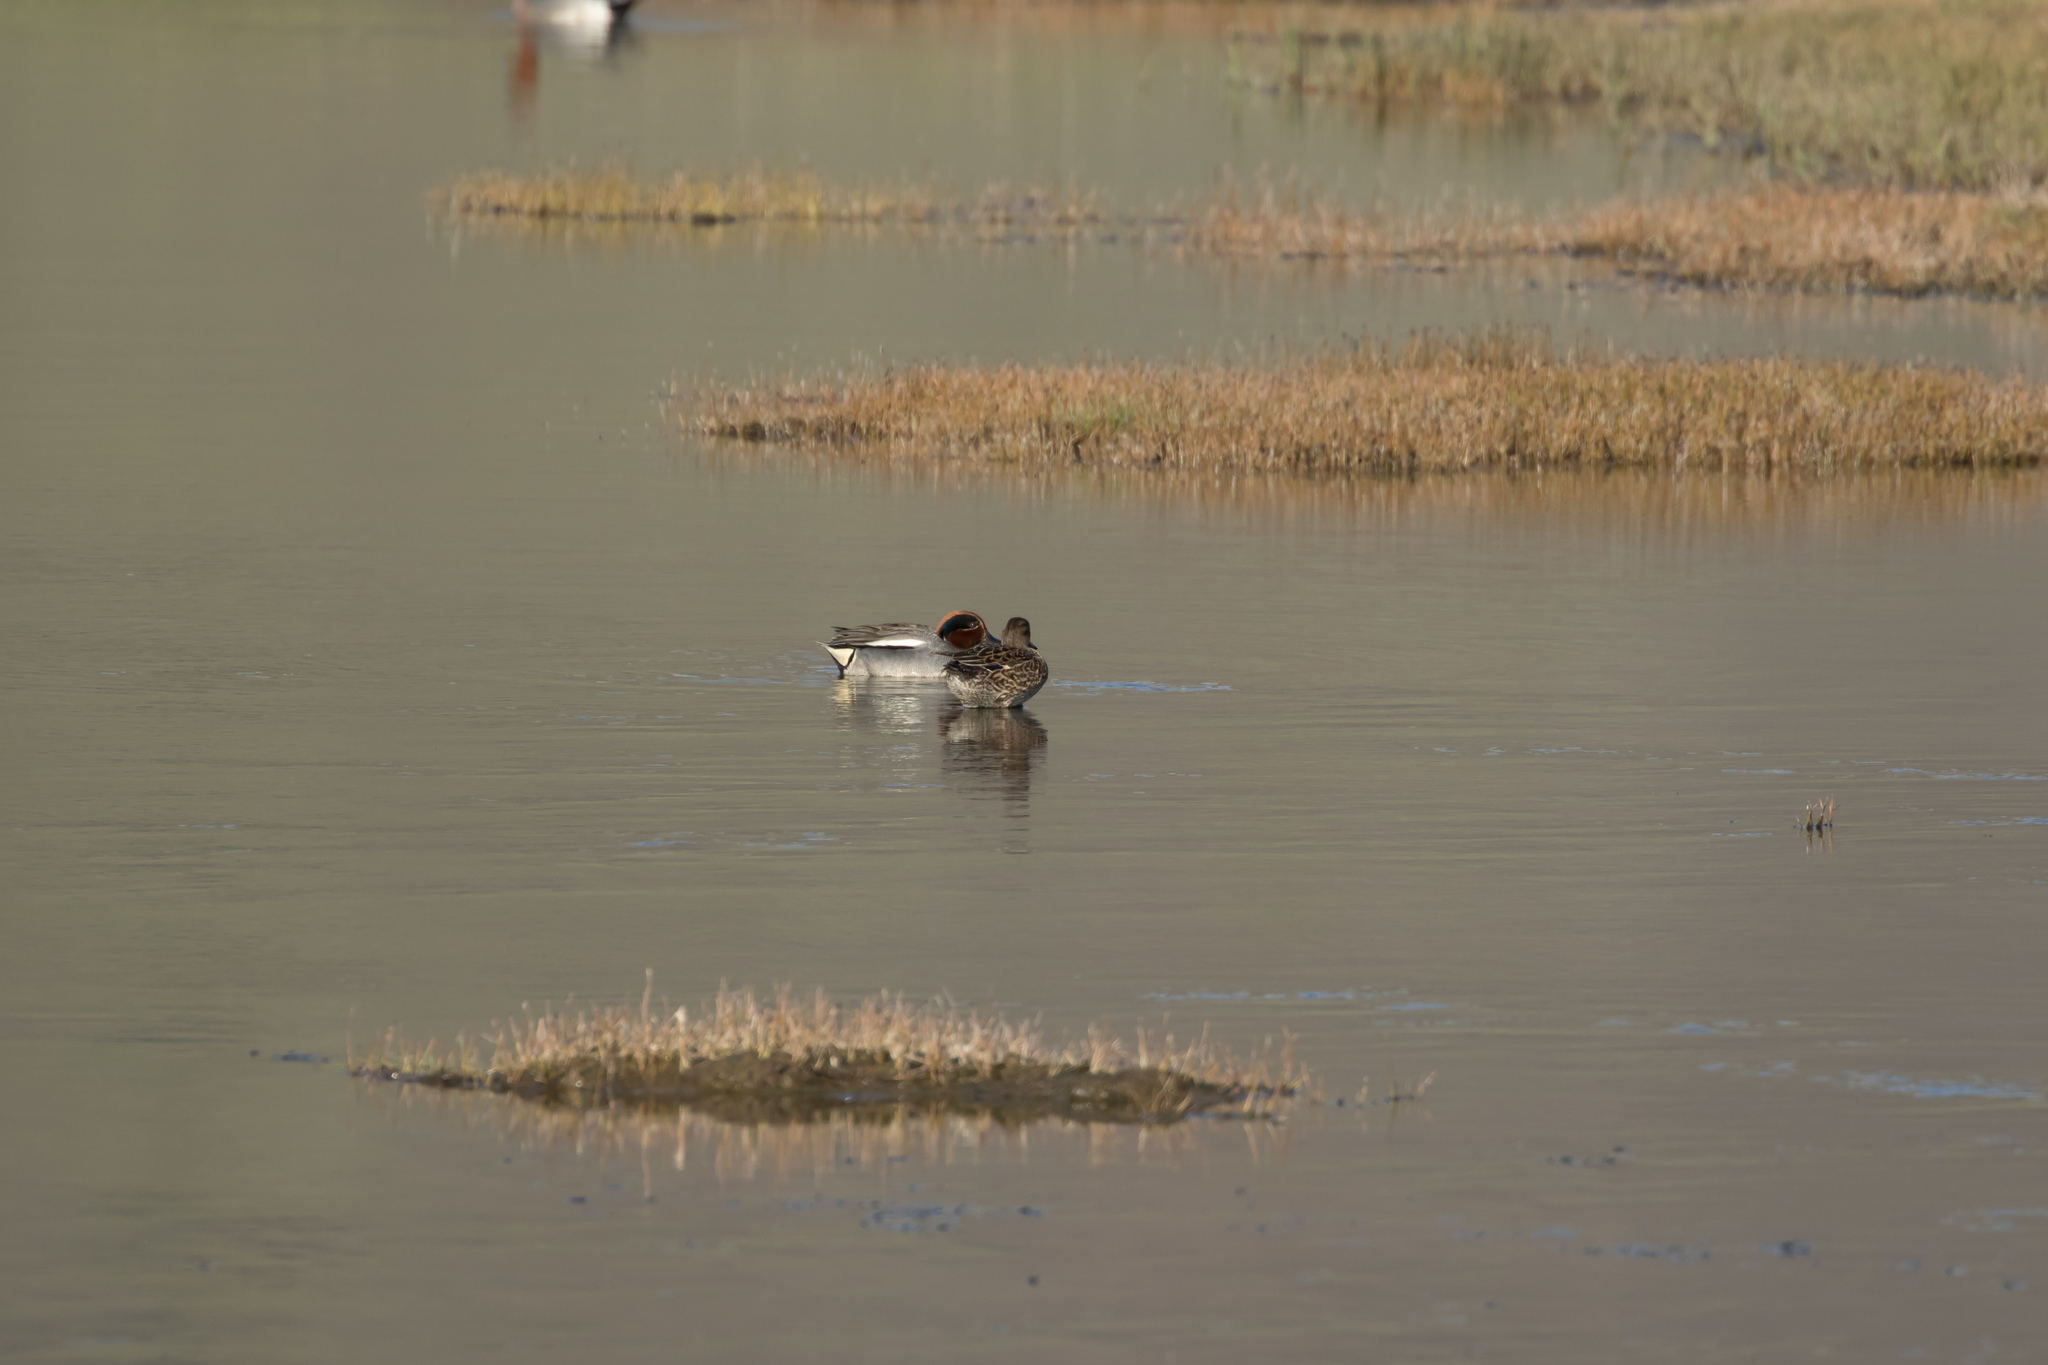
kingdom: Animalia
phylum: Chordata
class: Aves
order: Anseriformes
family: Anatidae
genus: Anas
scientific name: Anas crecca
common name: Eurasian teal
